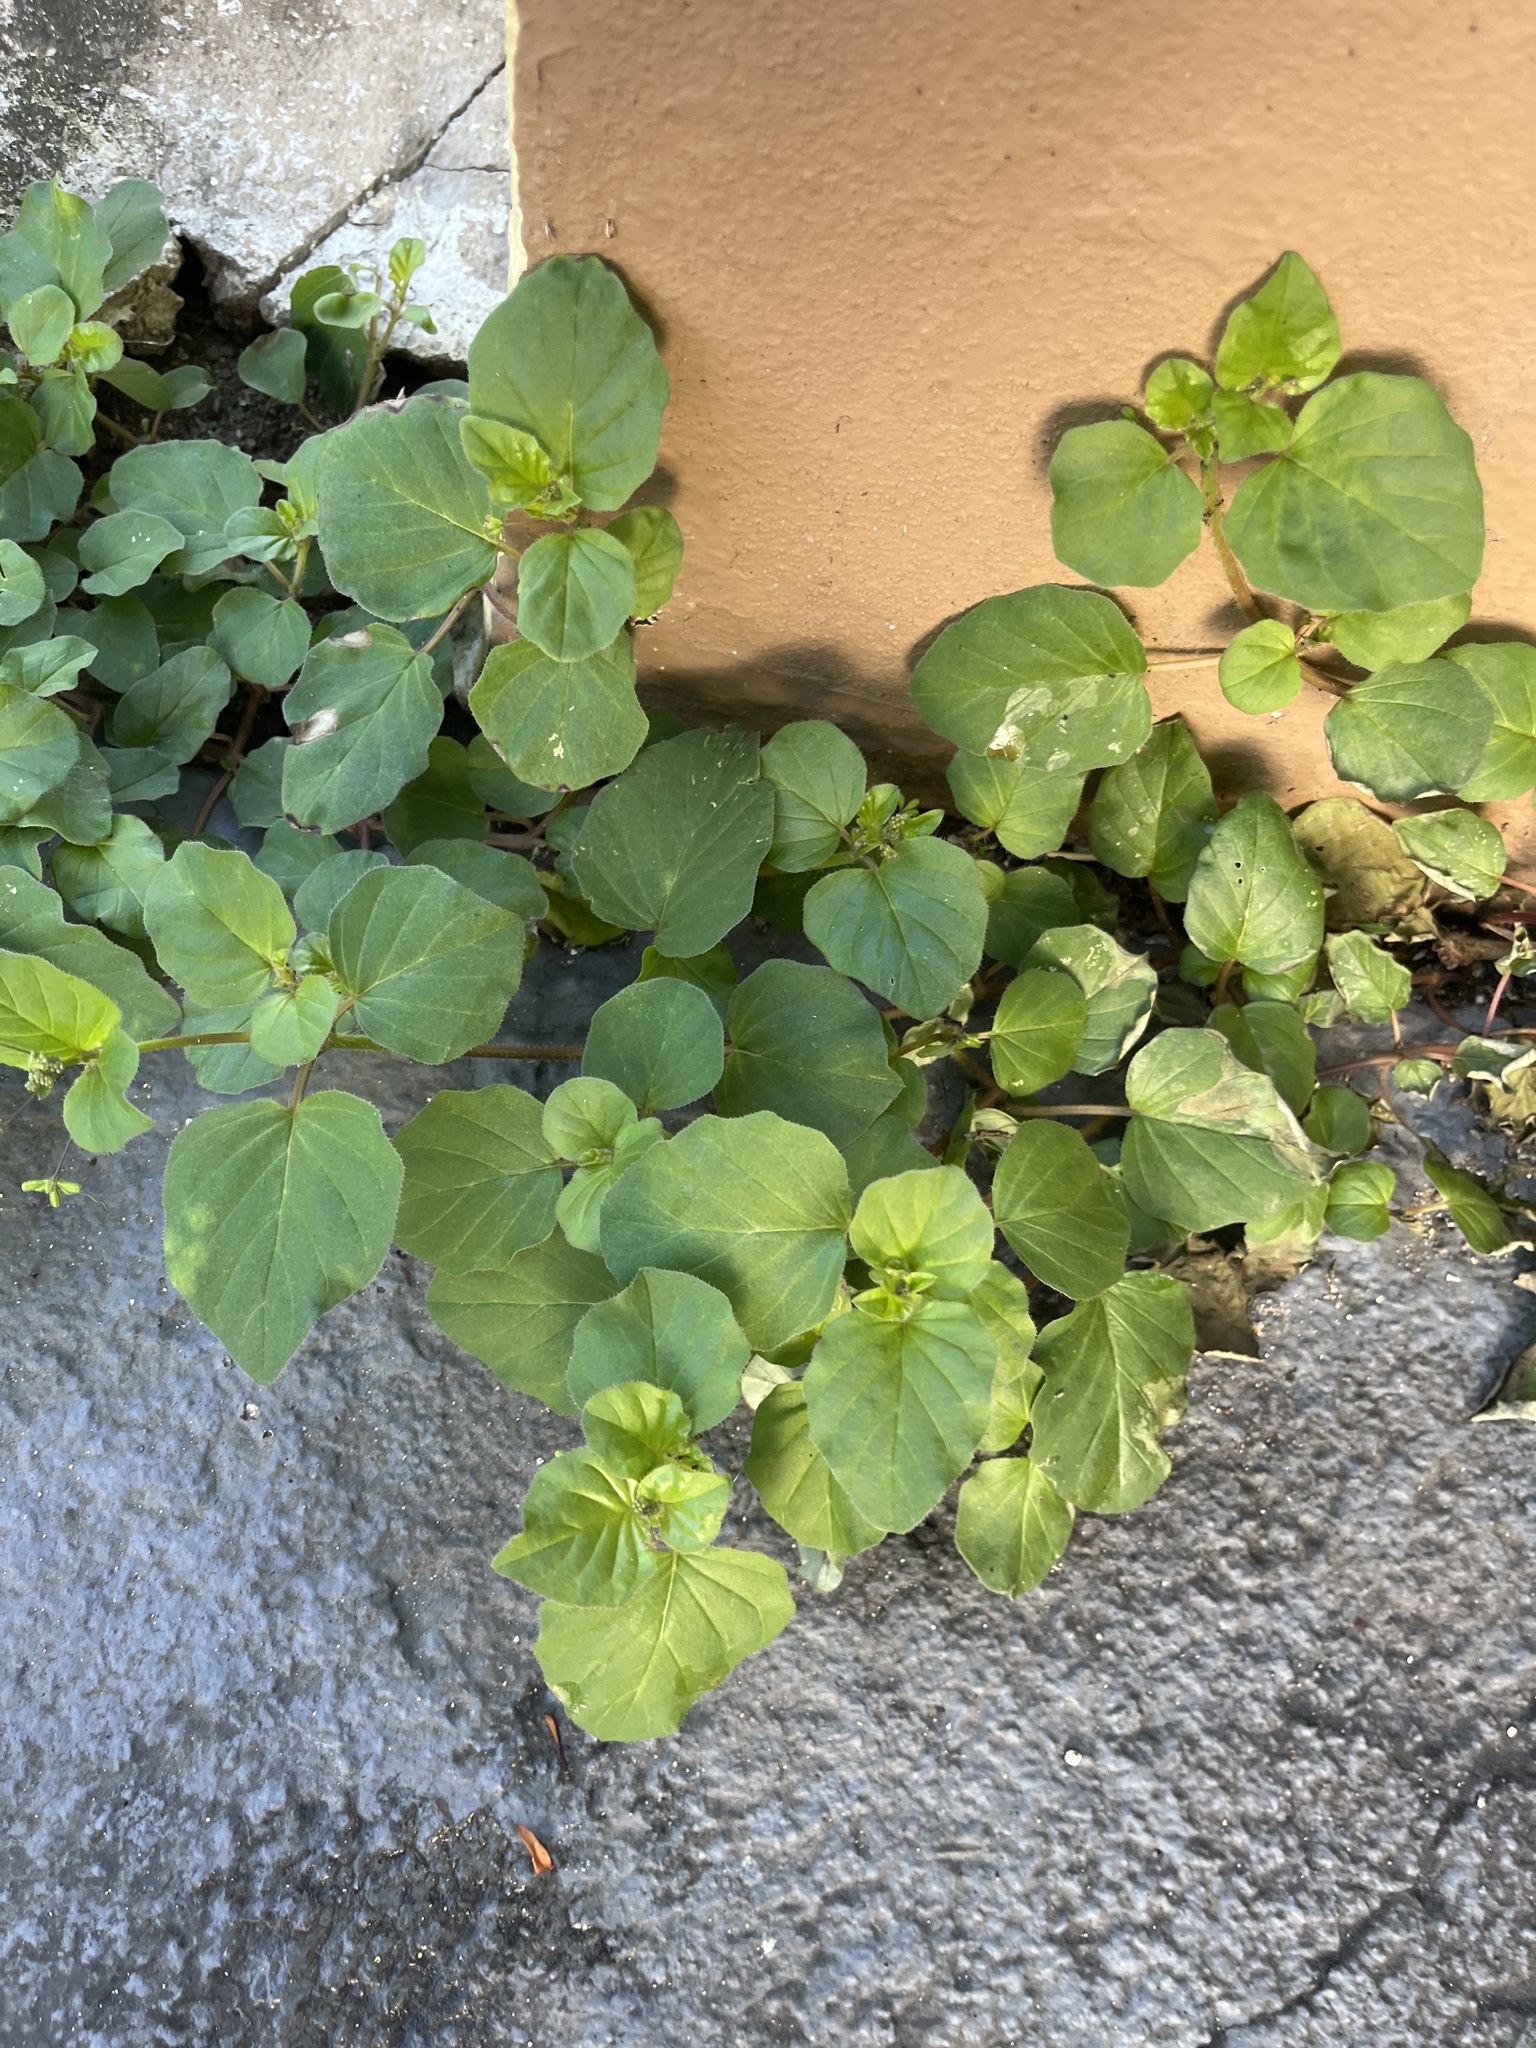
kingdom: Plantae
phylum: Tracheophyta
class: Magnoliopsida
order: Caryophyllales
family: Nyctaginaceae
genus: Boerhavia
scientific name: Boerhavia coccinea
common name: Scarlet spiderling
